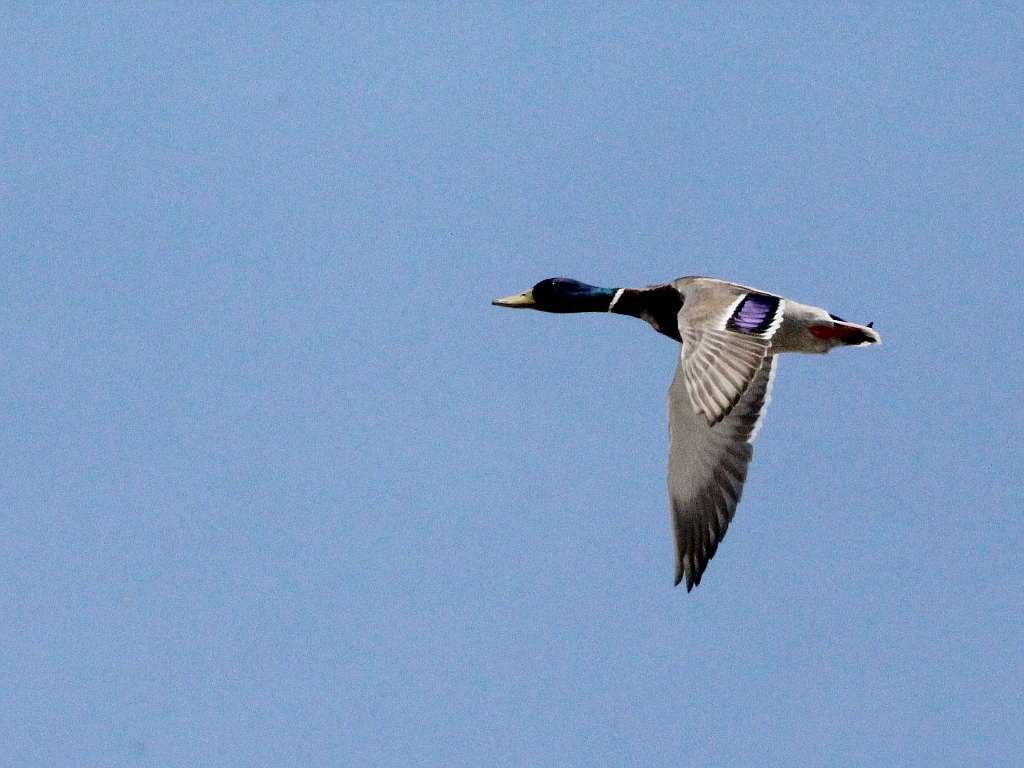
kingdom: Animalia
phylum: Chordata
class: Aves
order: Anseriformes
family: Anatidae
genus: Anas
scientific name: Anas platyrhynchos
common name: Mallard
